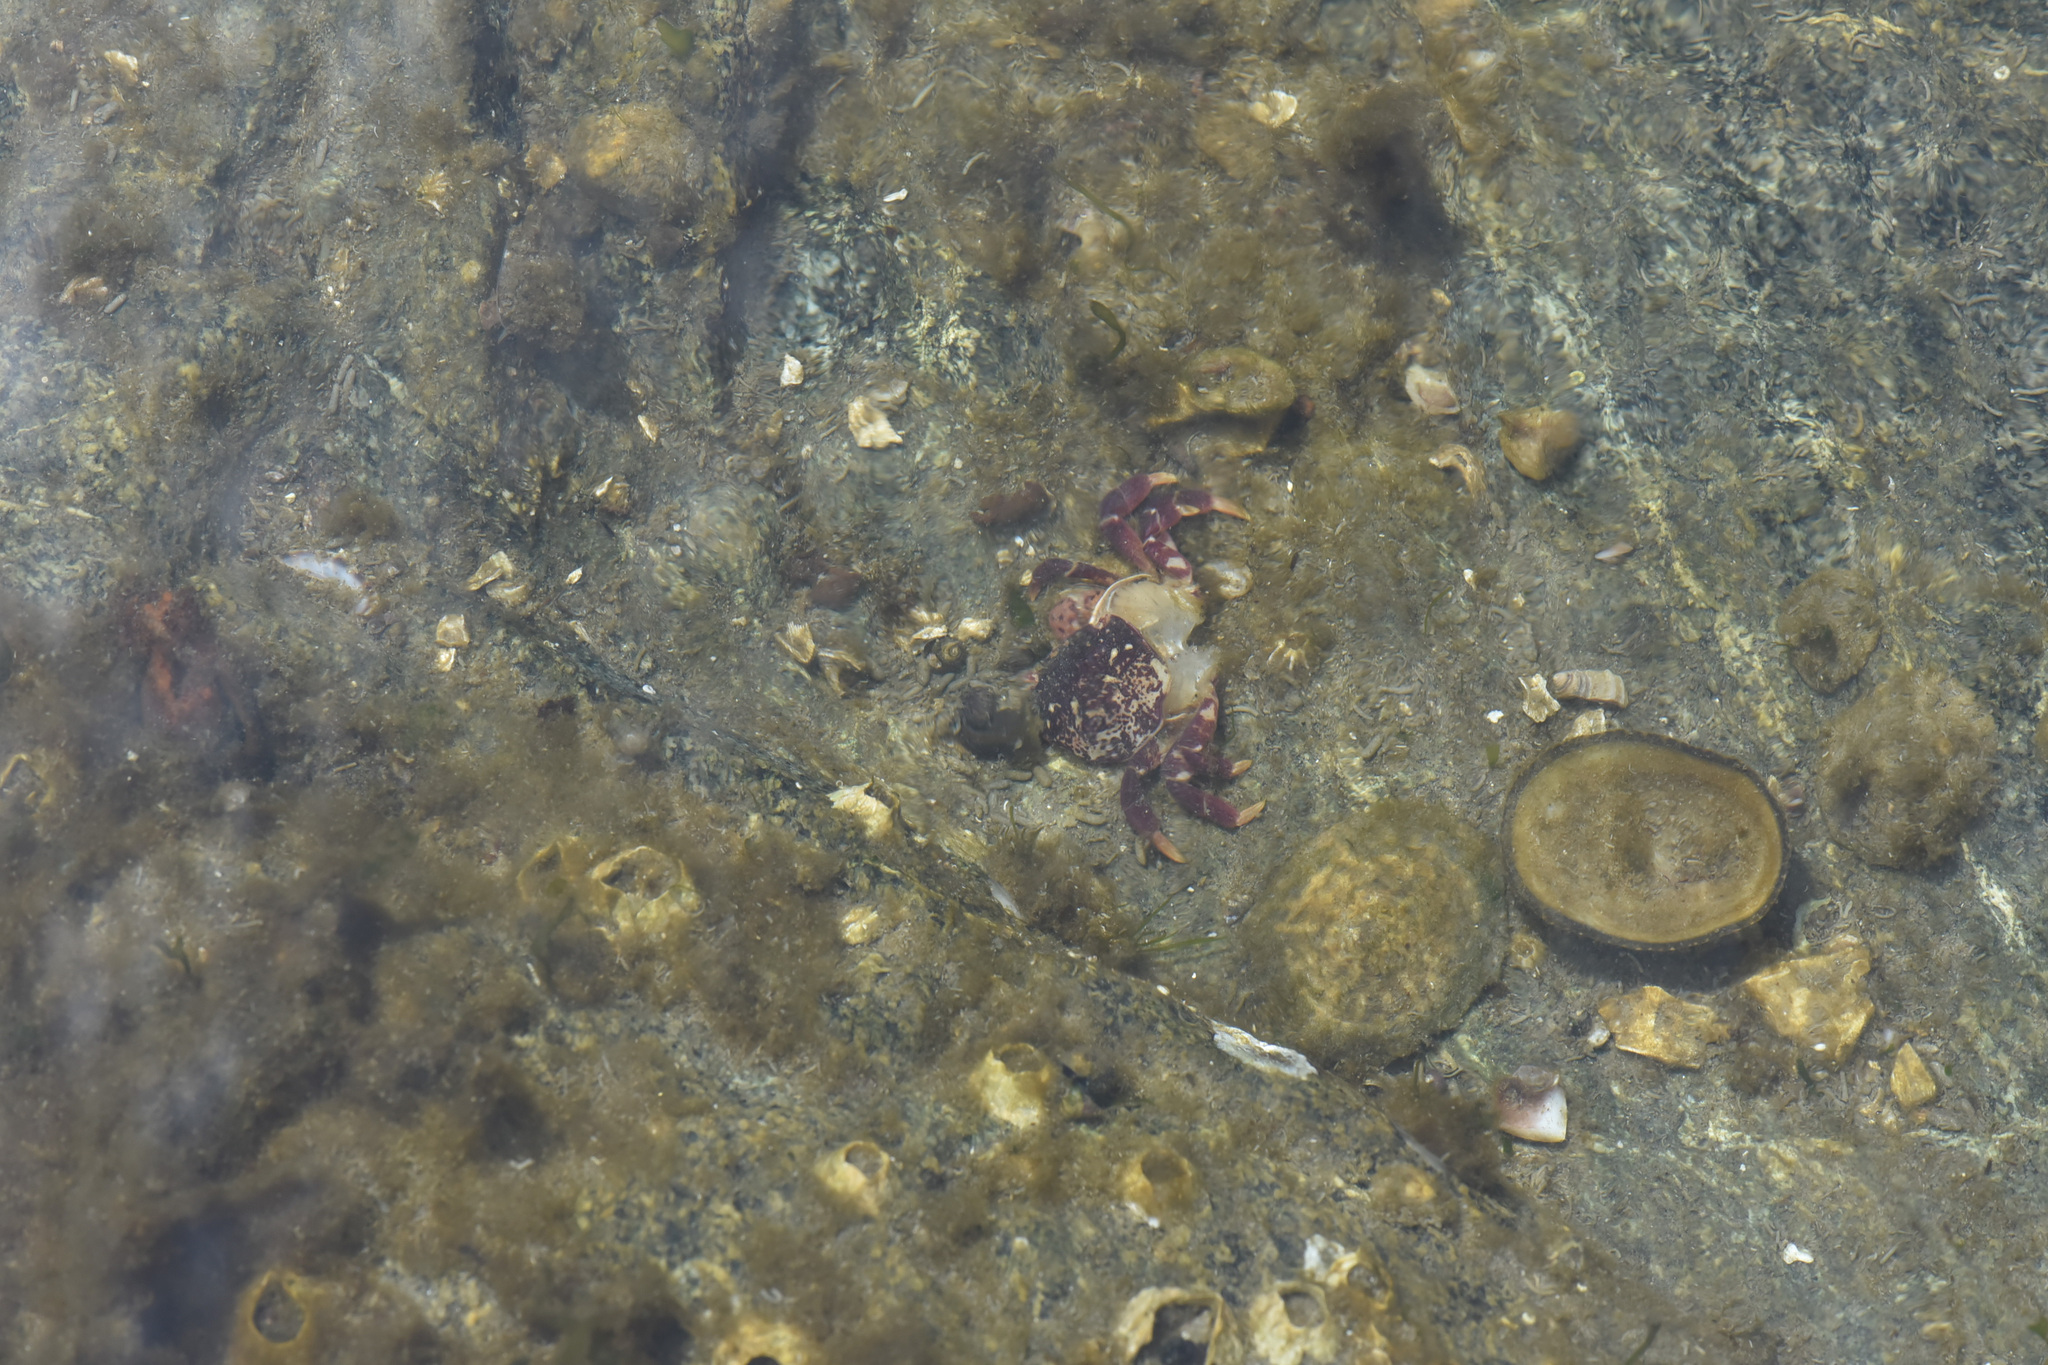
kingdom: Animalia
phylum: Arthropoda
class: Malacostraca
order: Decapoda
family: Varunidae
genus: Hemigrapsus
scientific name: Hemigrapsus nudus
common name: Purple shore crab
